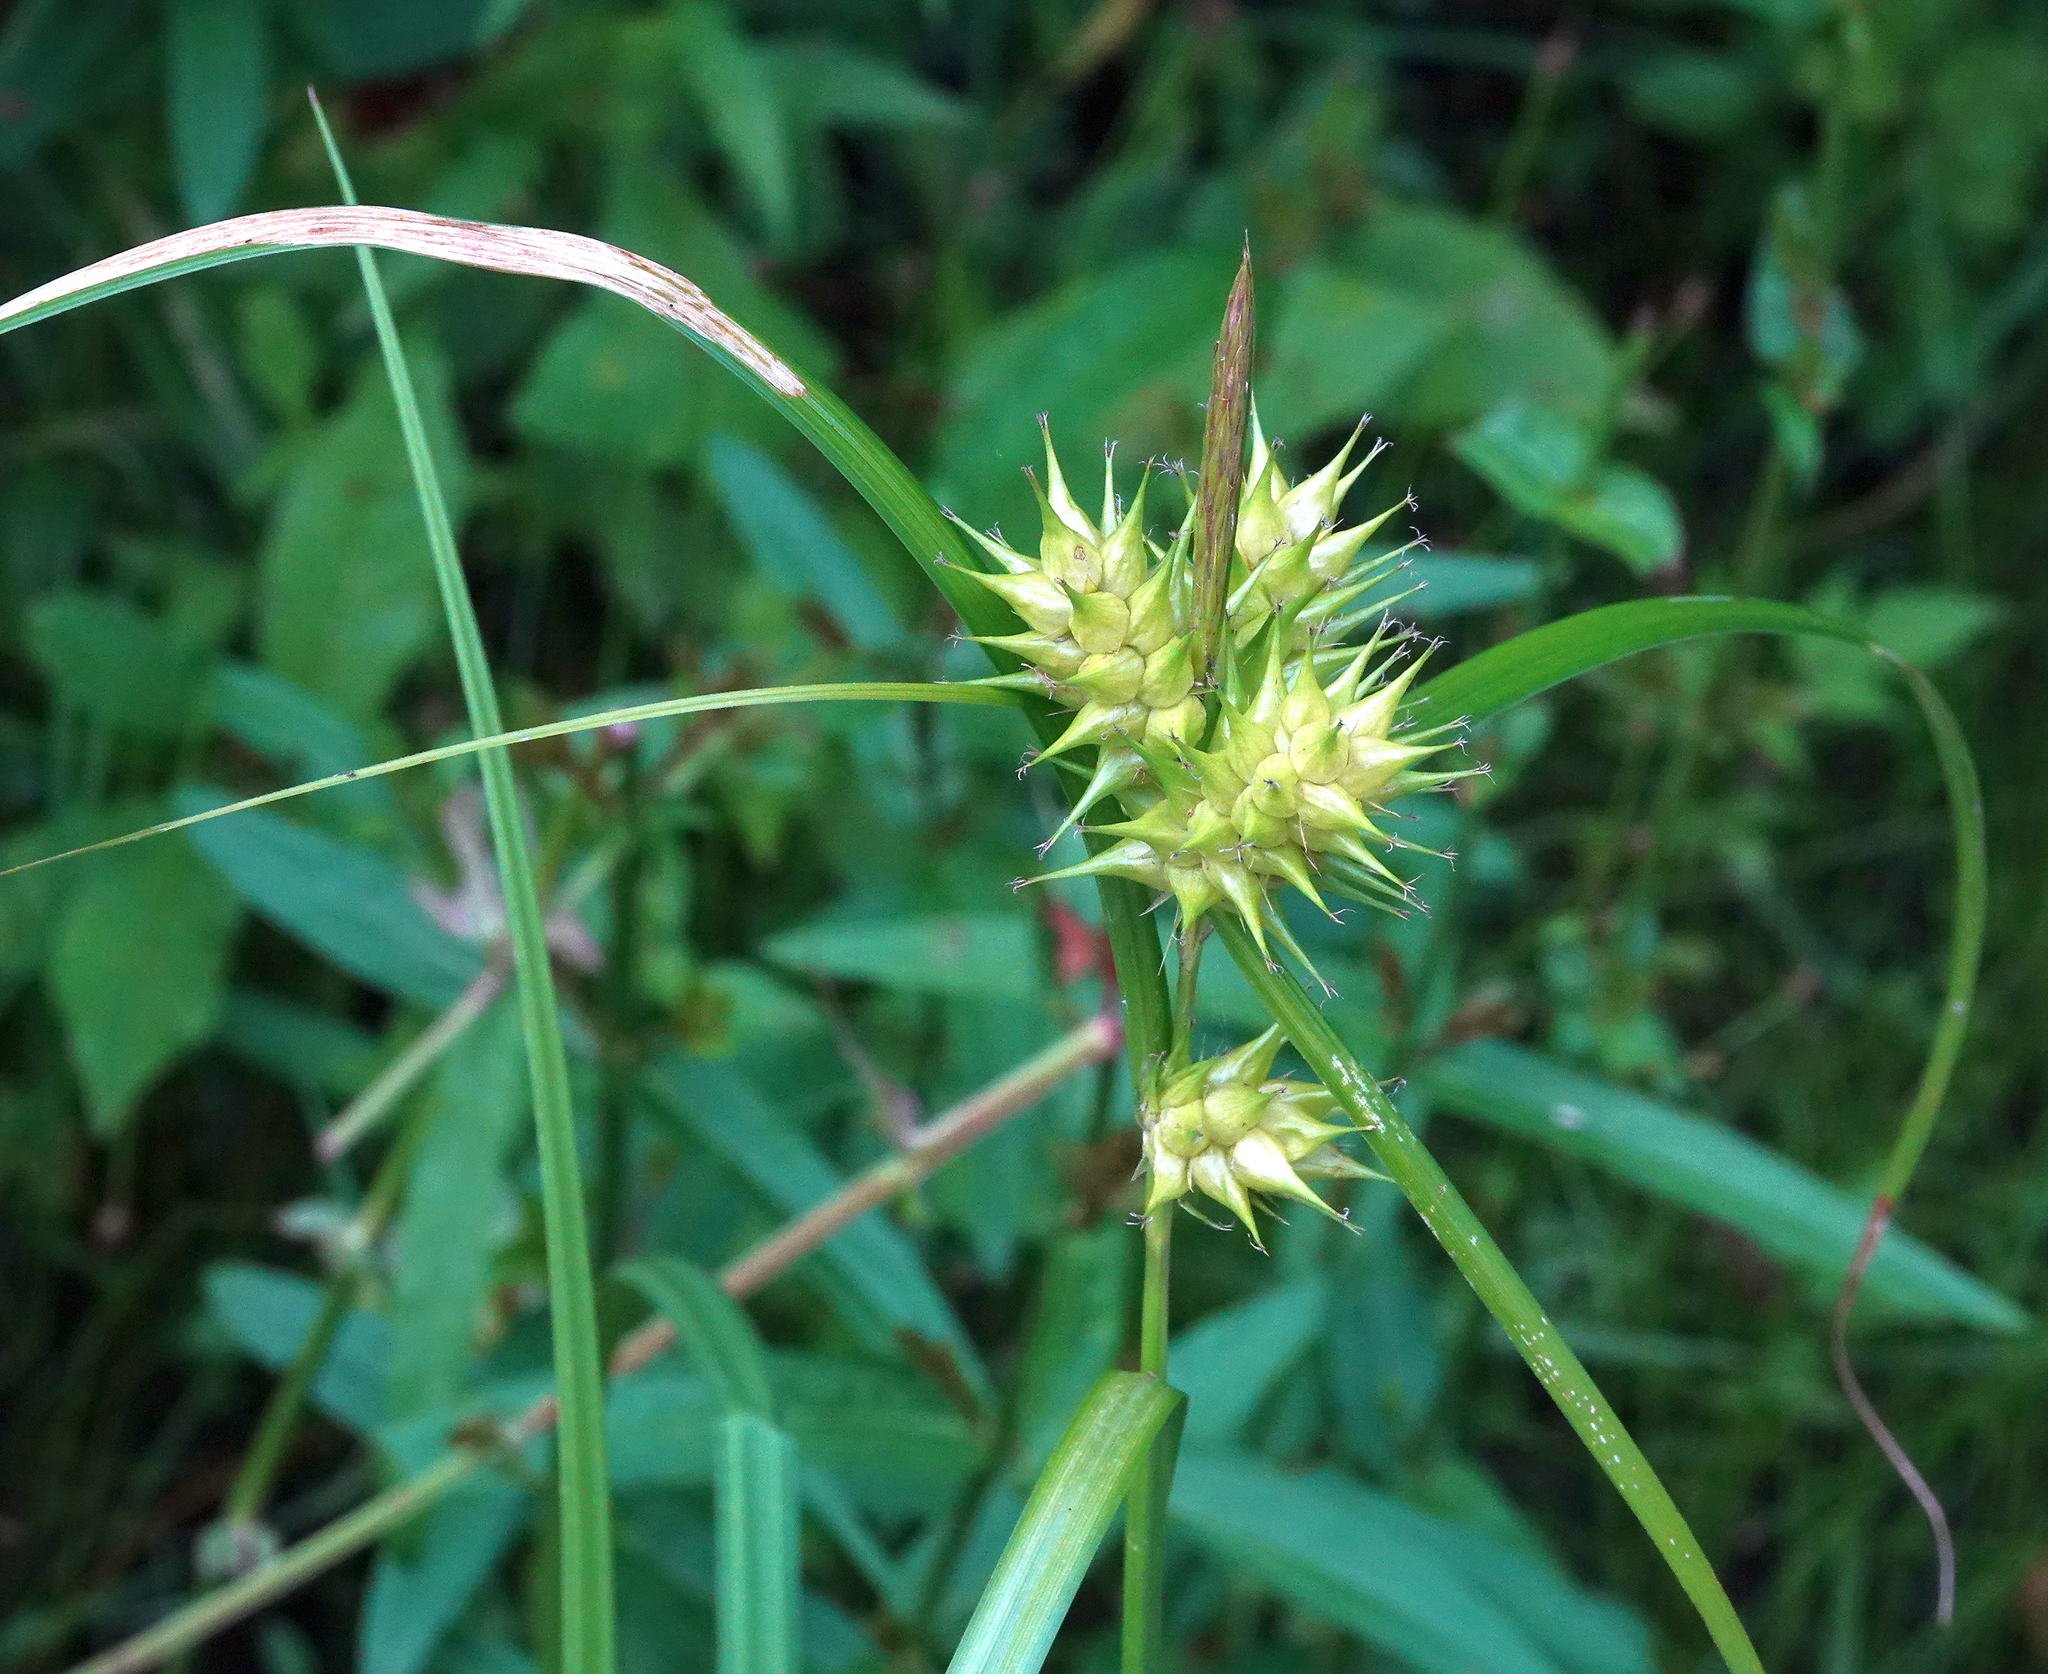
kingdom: Plantae
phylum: Tracheophyta
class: Liliopsida
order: Poales
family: Cyperaceae
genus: Carex
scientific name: Carex lupulina
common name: Hop sedge
